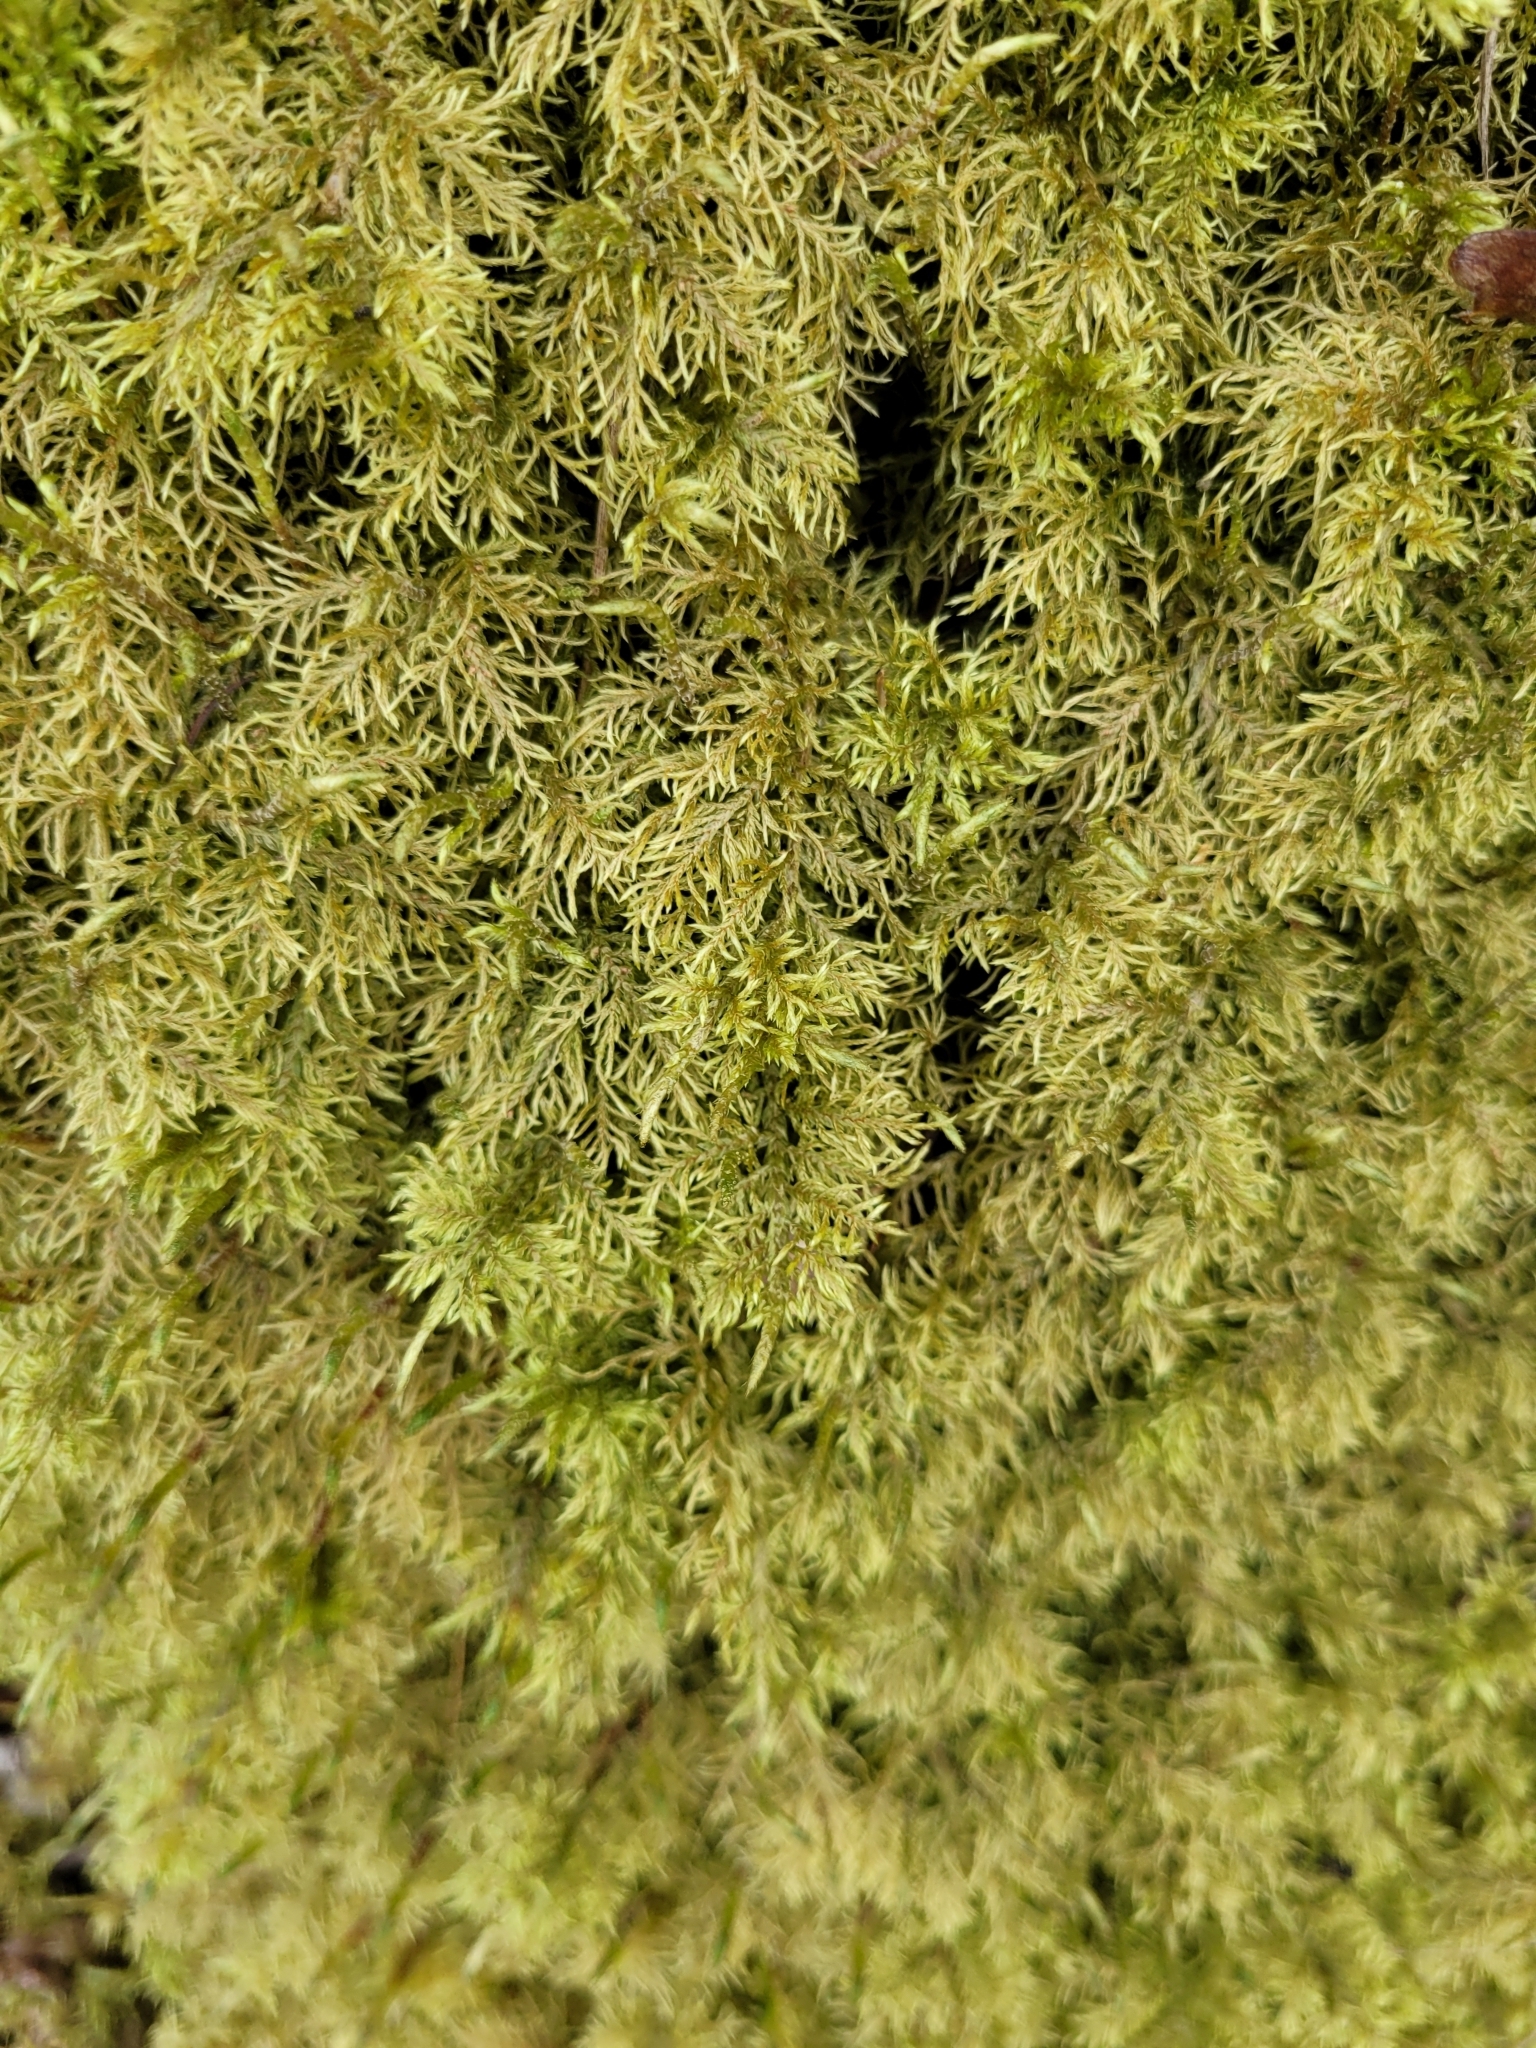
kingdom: Plantae
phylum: Bryophyta
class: Bryopsida
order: Hypnales
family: Hylocomiaceae
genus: Hylocomium
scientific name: Hylocomium splendens
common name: Stairstep moss
